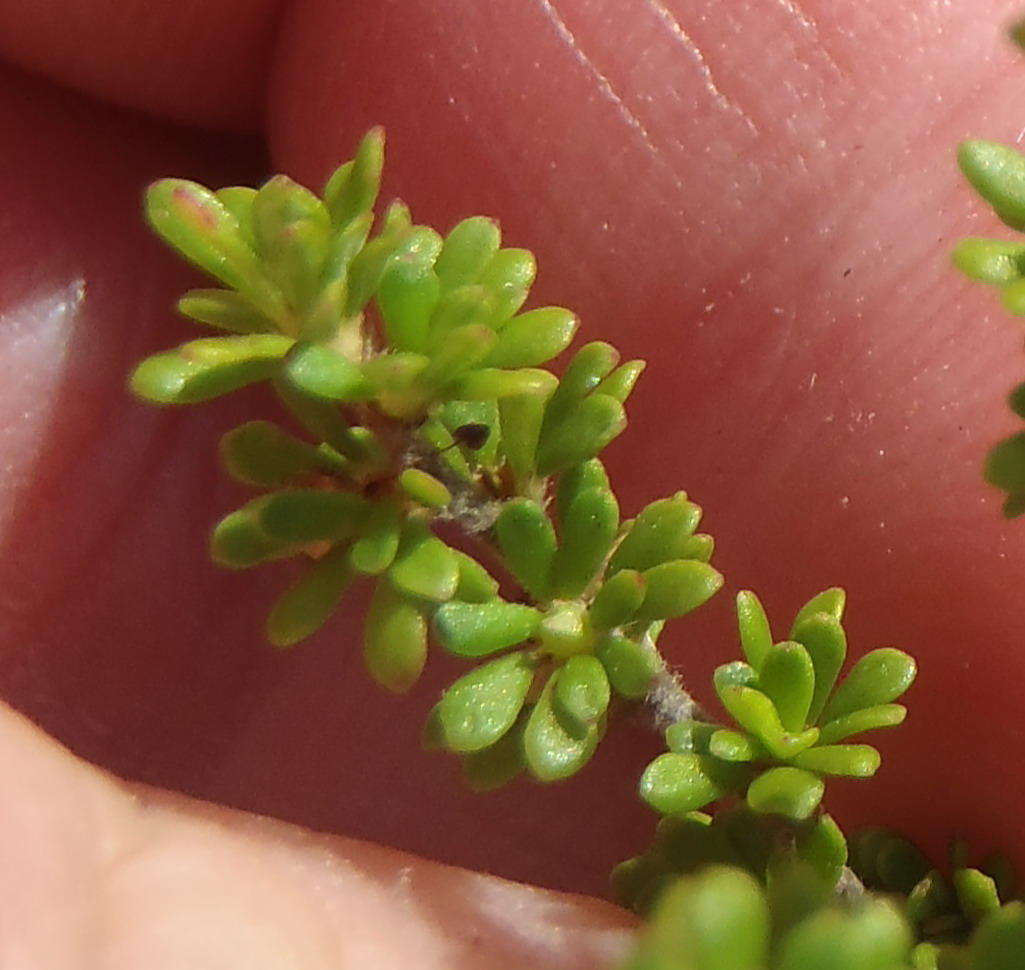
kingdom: Plantae
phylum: Tracheophyta
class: Magnoliopsida
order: Rosales
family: Rosaceae
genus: Cliffortia
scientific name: Cliffortia serpyllifolia
